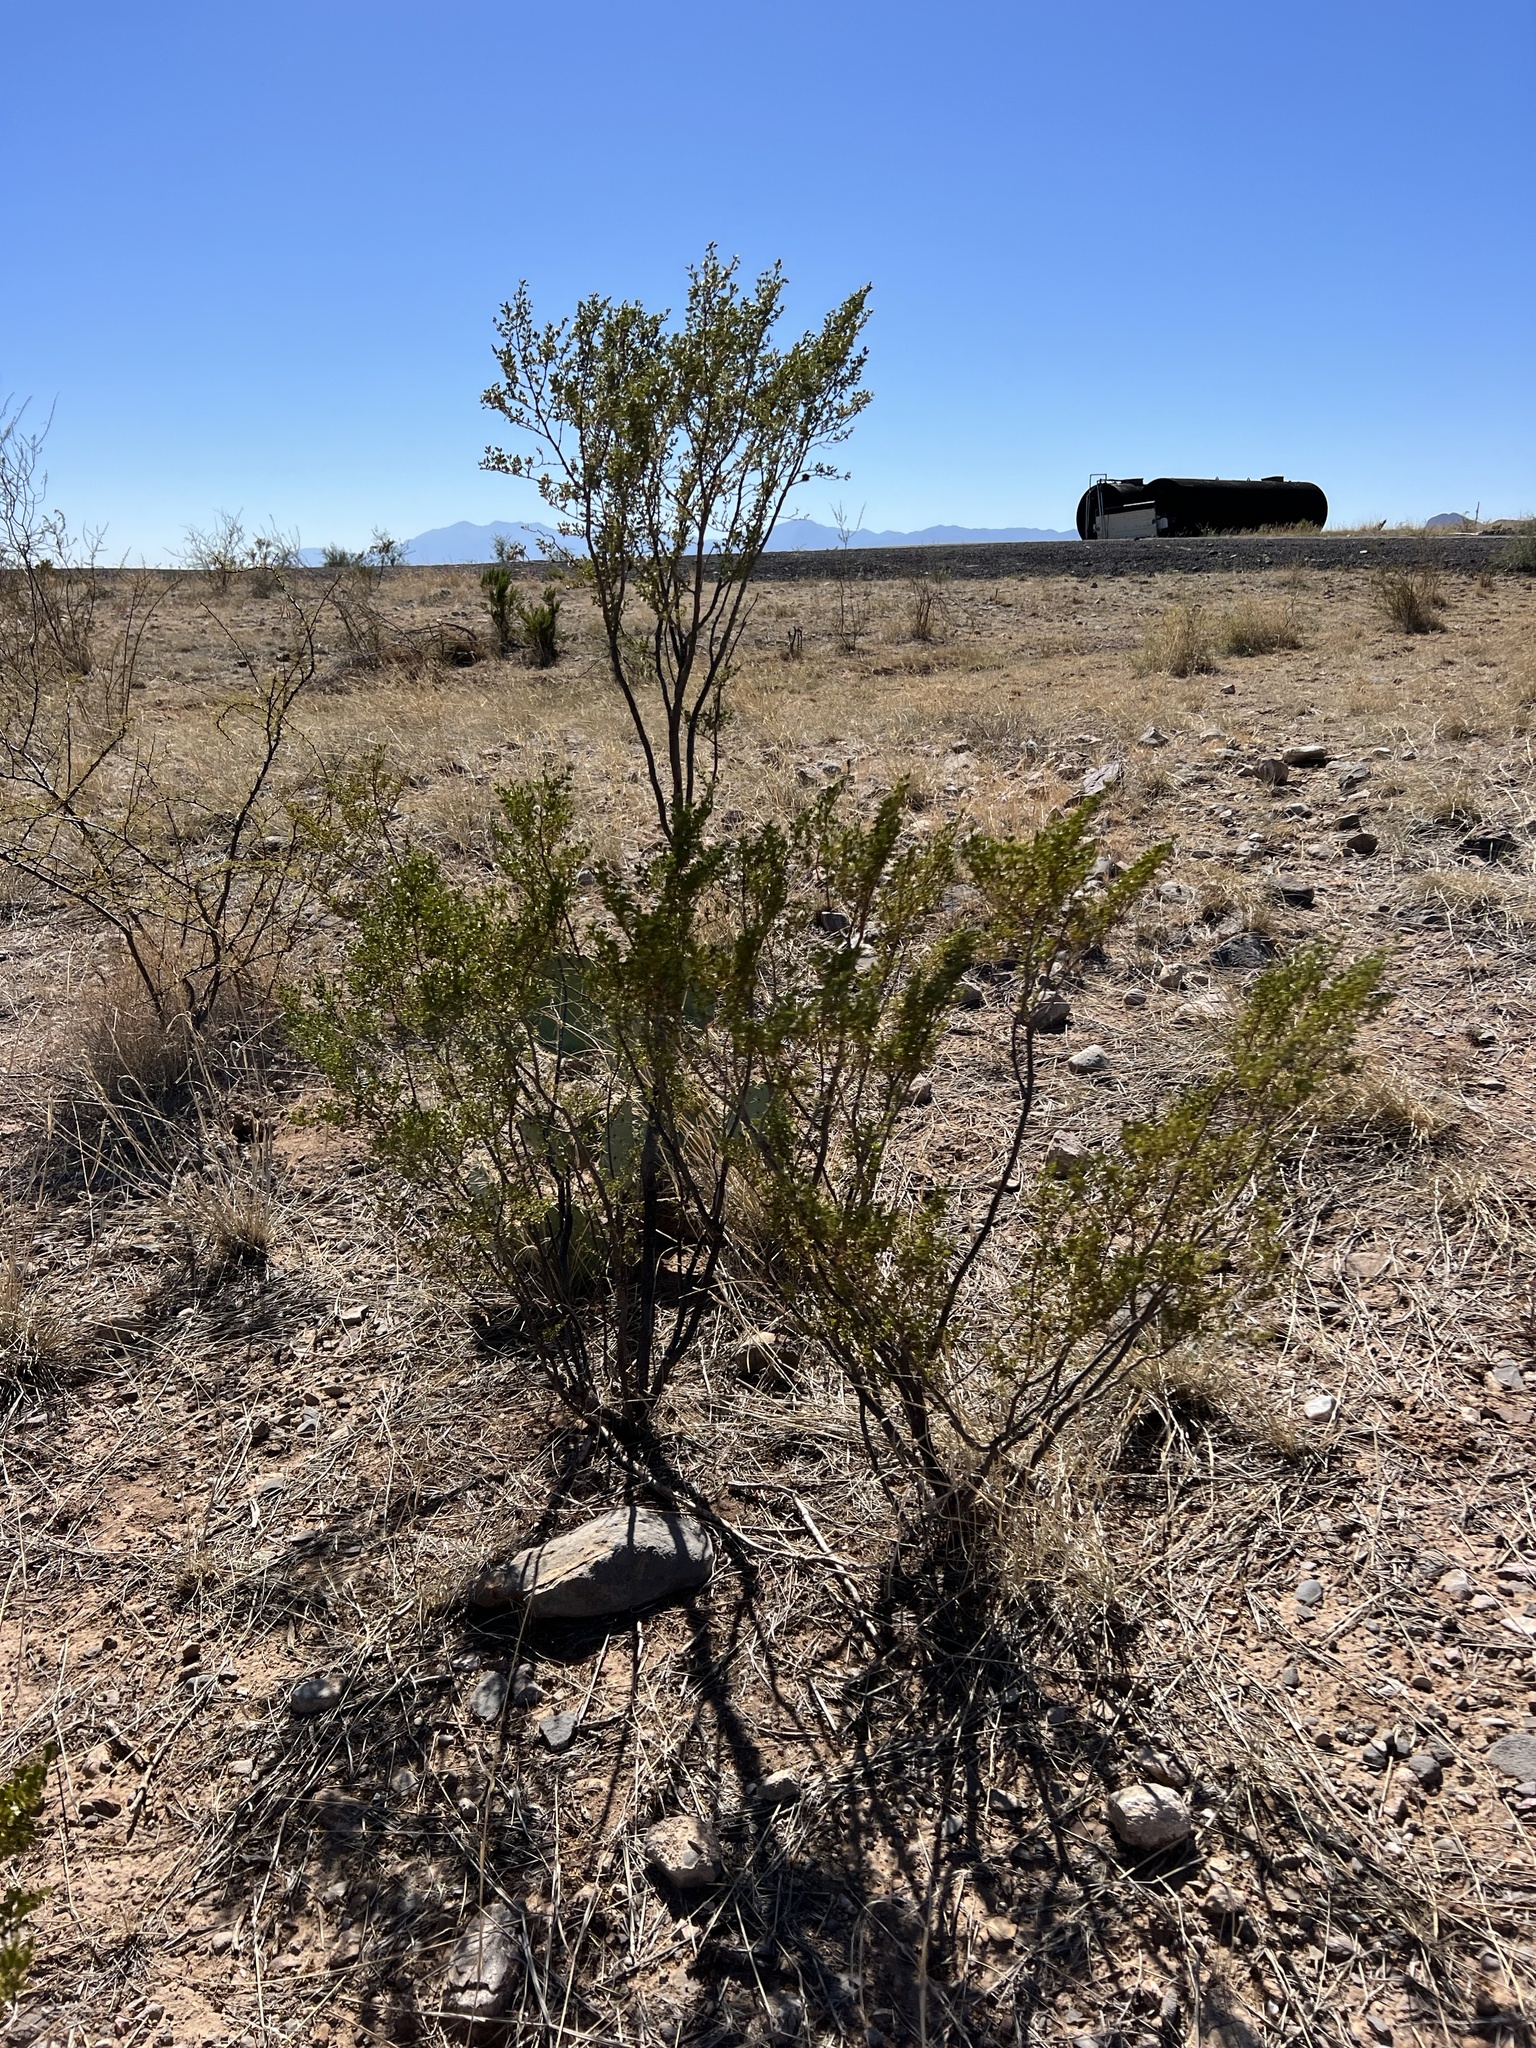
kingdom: Plantae
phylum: Tracheophyta
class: Magnoliopsida
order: Zygophyllales
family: Zygophyllaceae
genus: Larrea
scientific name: Larrea tridentata
